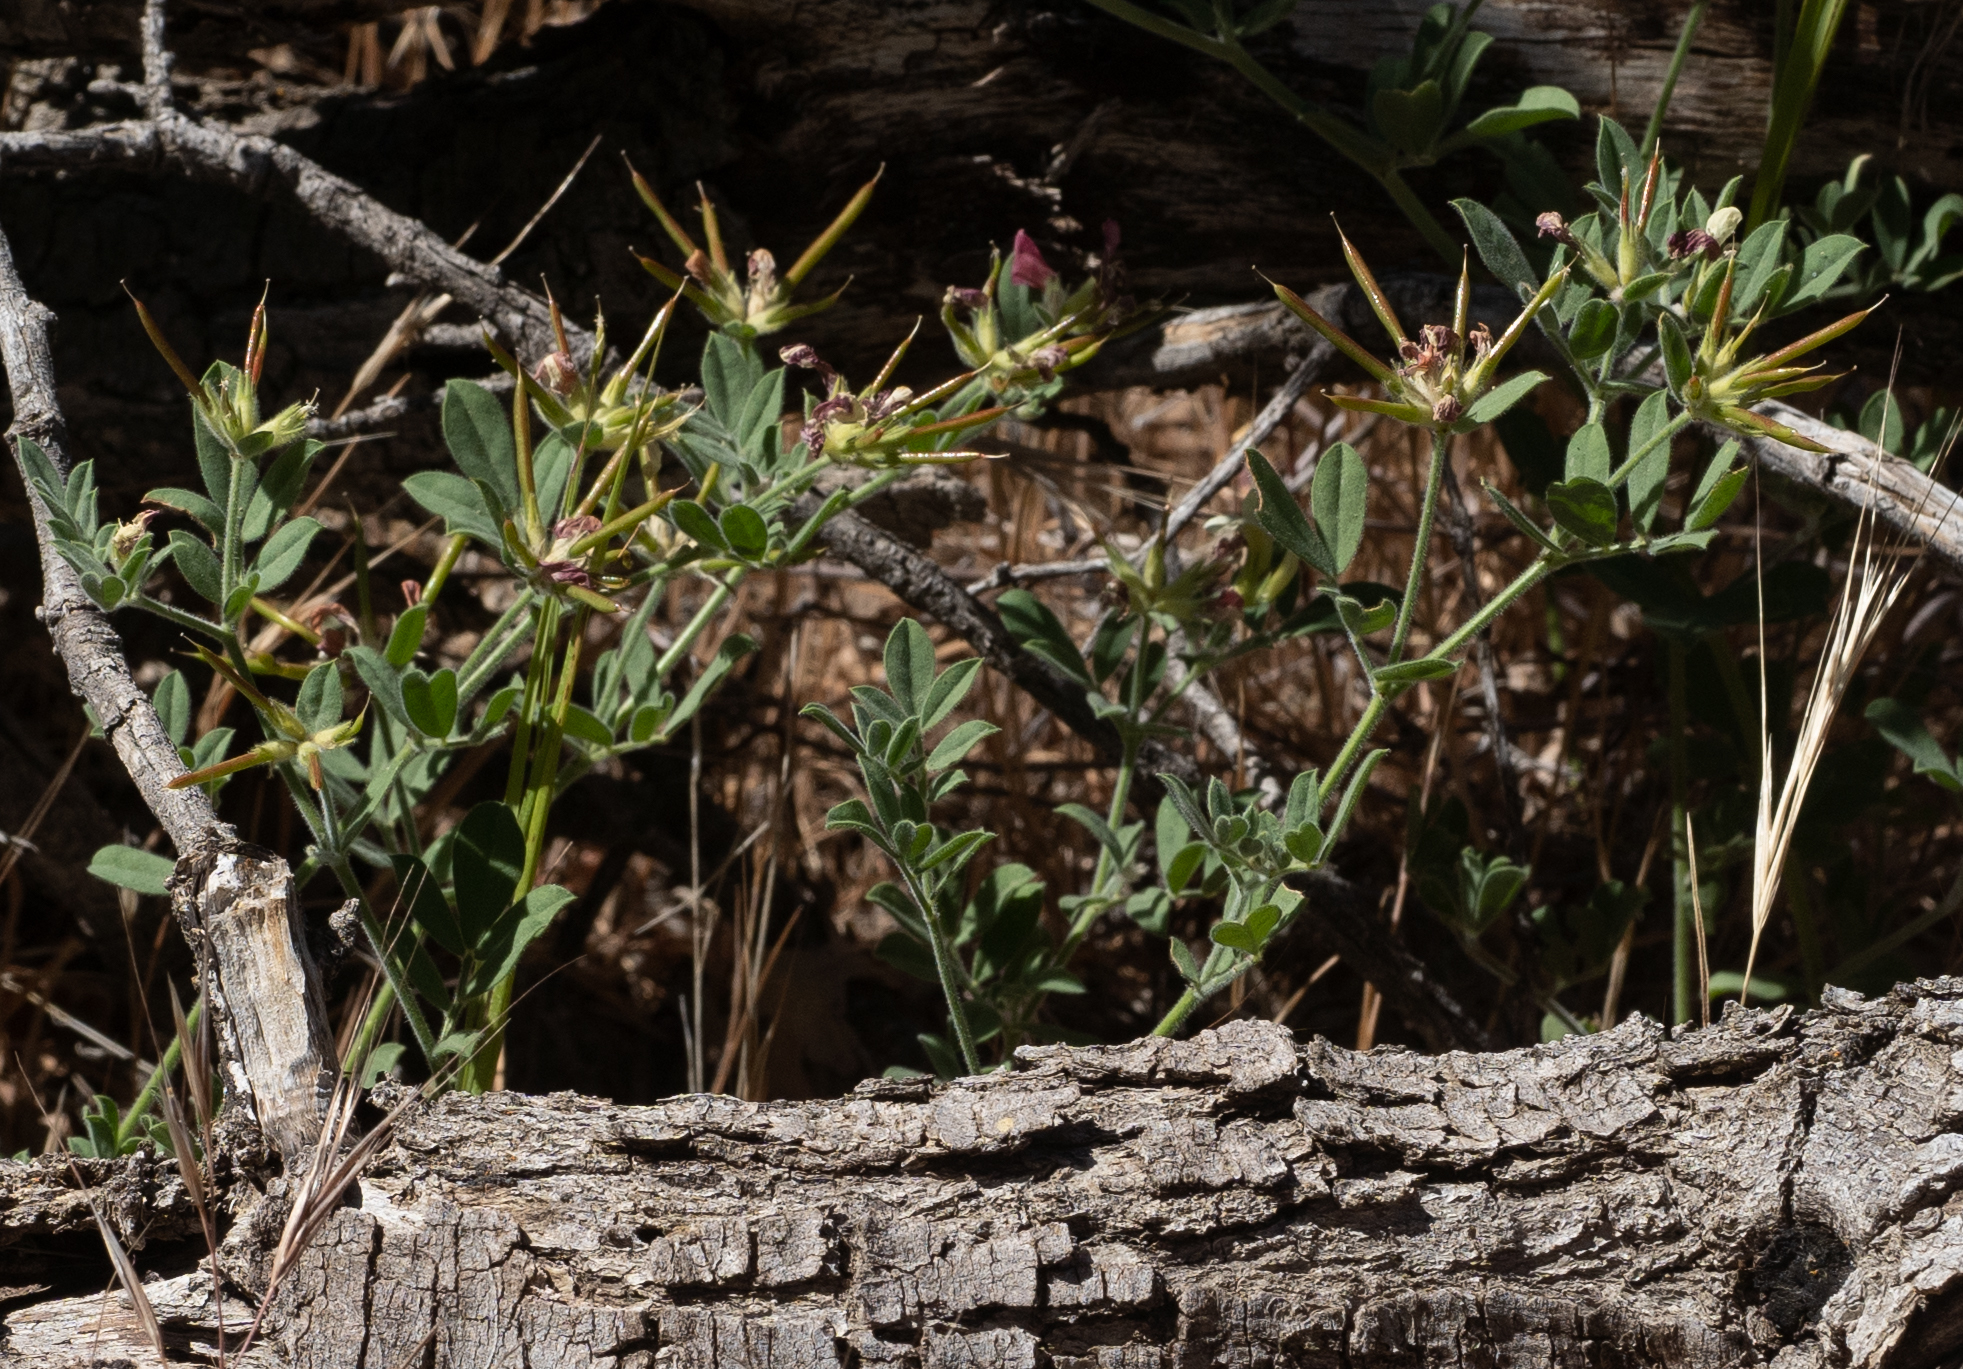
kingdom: Plantae
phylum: Tracheophyta
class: Magnoliopsida
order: Fabales
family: Fabaceae
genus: Acmispon
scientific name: Acmispon grandiflorus
